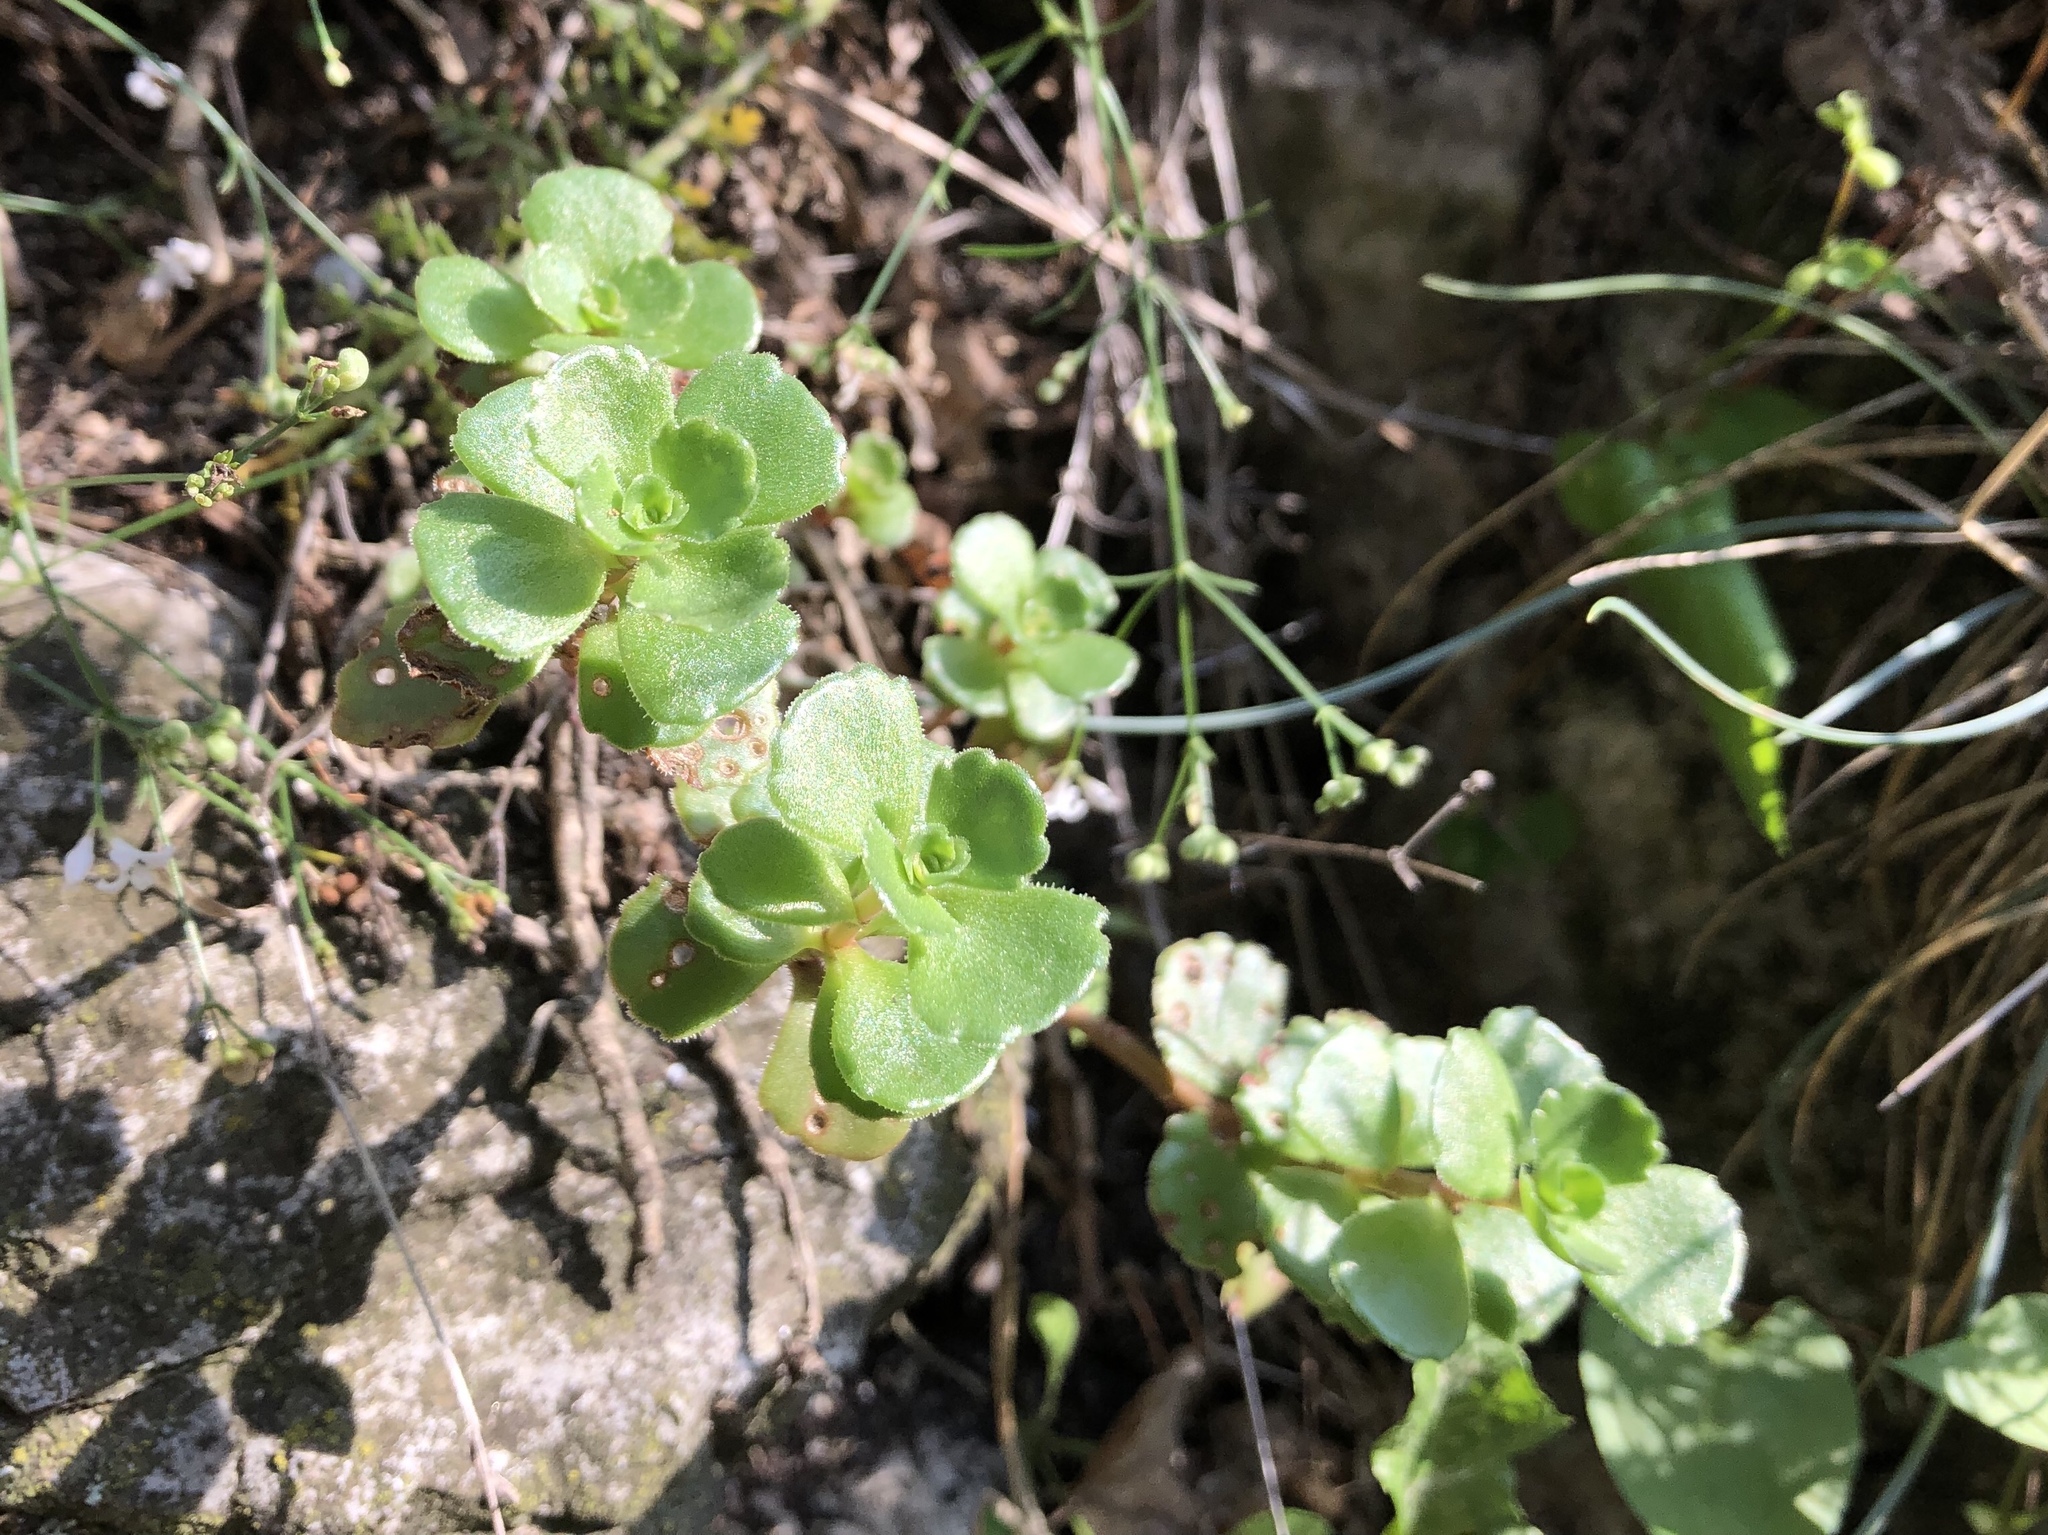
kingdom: Plantae
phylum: Tracheophyta
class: Magnoliopsida
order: Saxifragales
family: Crassulaceae
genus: Phedimus
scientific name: Phedimus spurius
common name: Caucasian stonecrop
